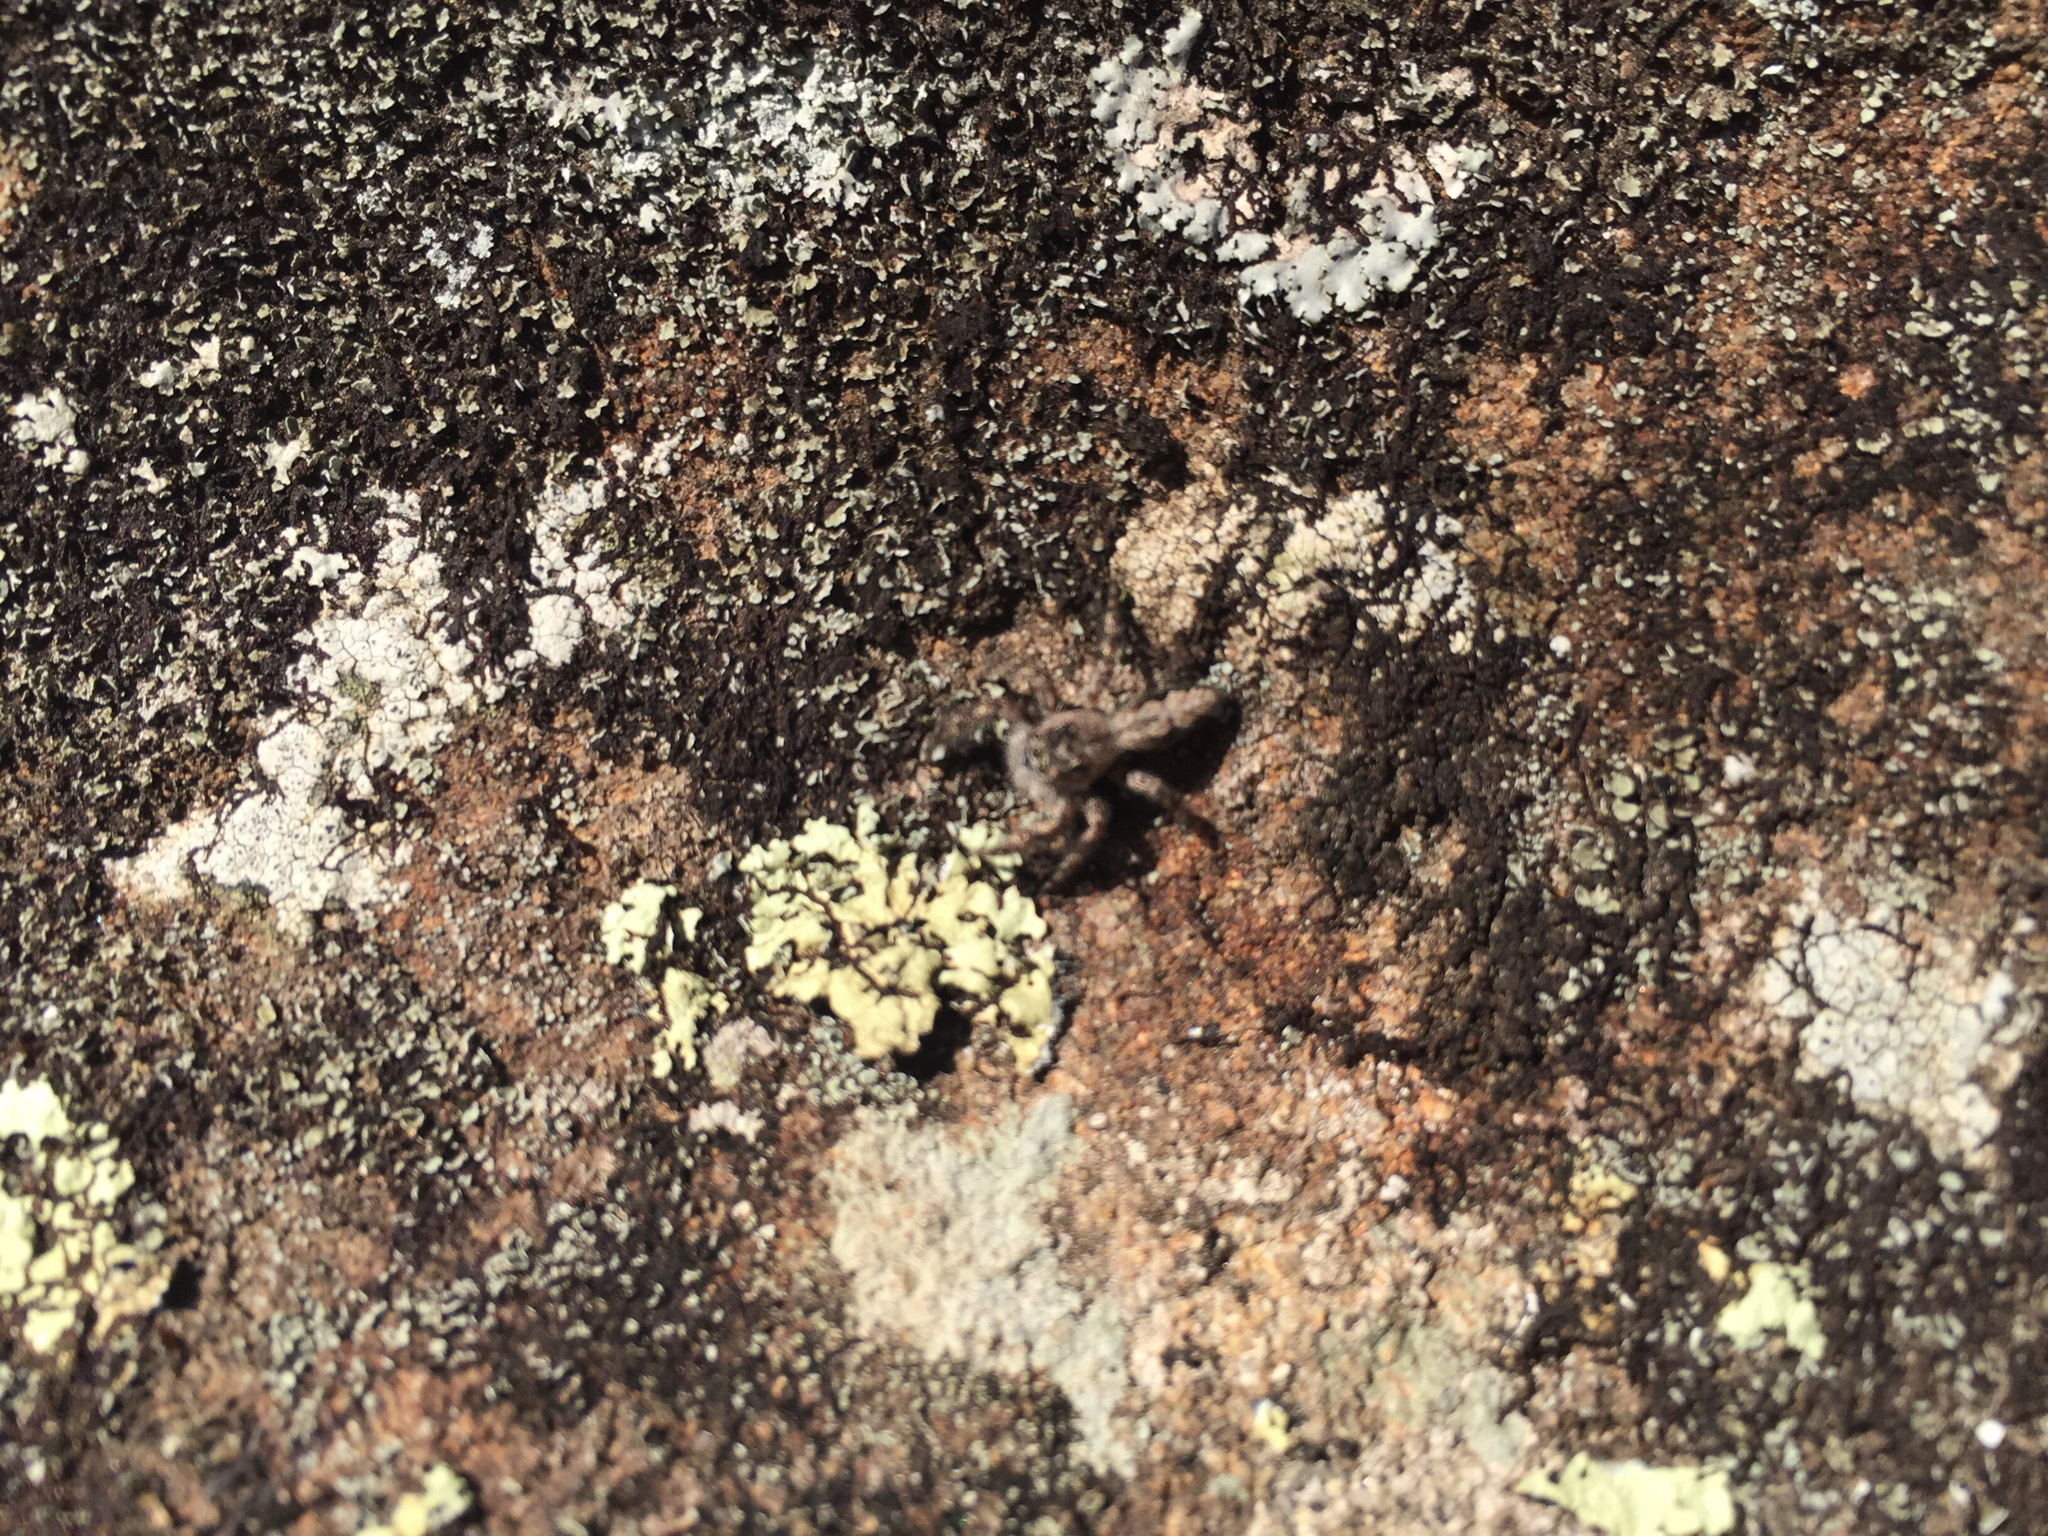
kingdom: Animalia
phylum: Arthropoda
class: Arachnida
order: Araneae
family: Salticidae
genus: Platycryptus
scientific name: Platycryptus undatus
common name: Tan jumping spider
